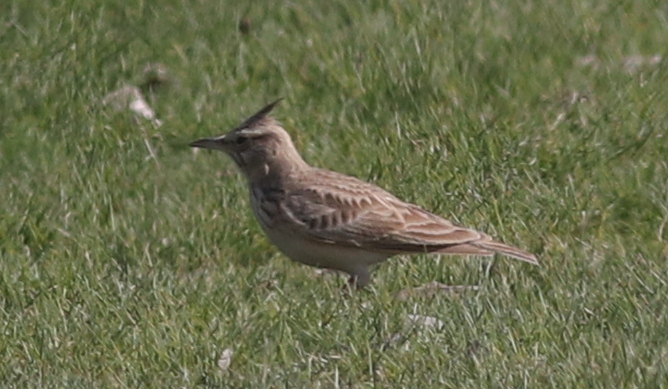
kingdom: Animalia
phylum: Chordata
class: Aves
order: Passeriformes
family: Alaudidae
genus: Galerida
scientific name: Galerida cristata
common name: Crested lark
